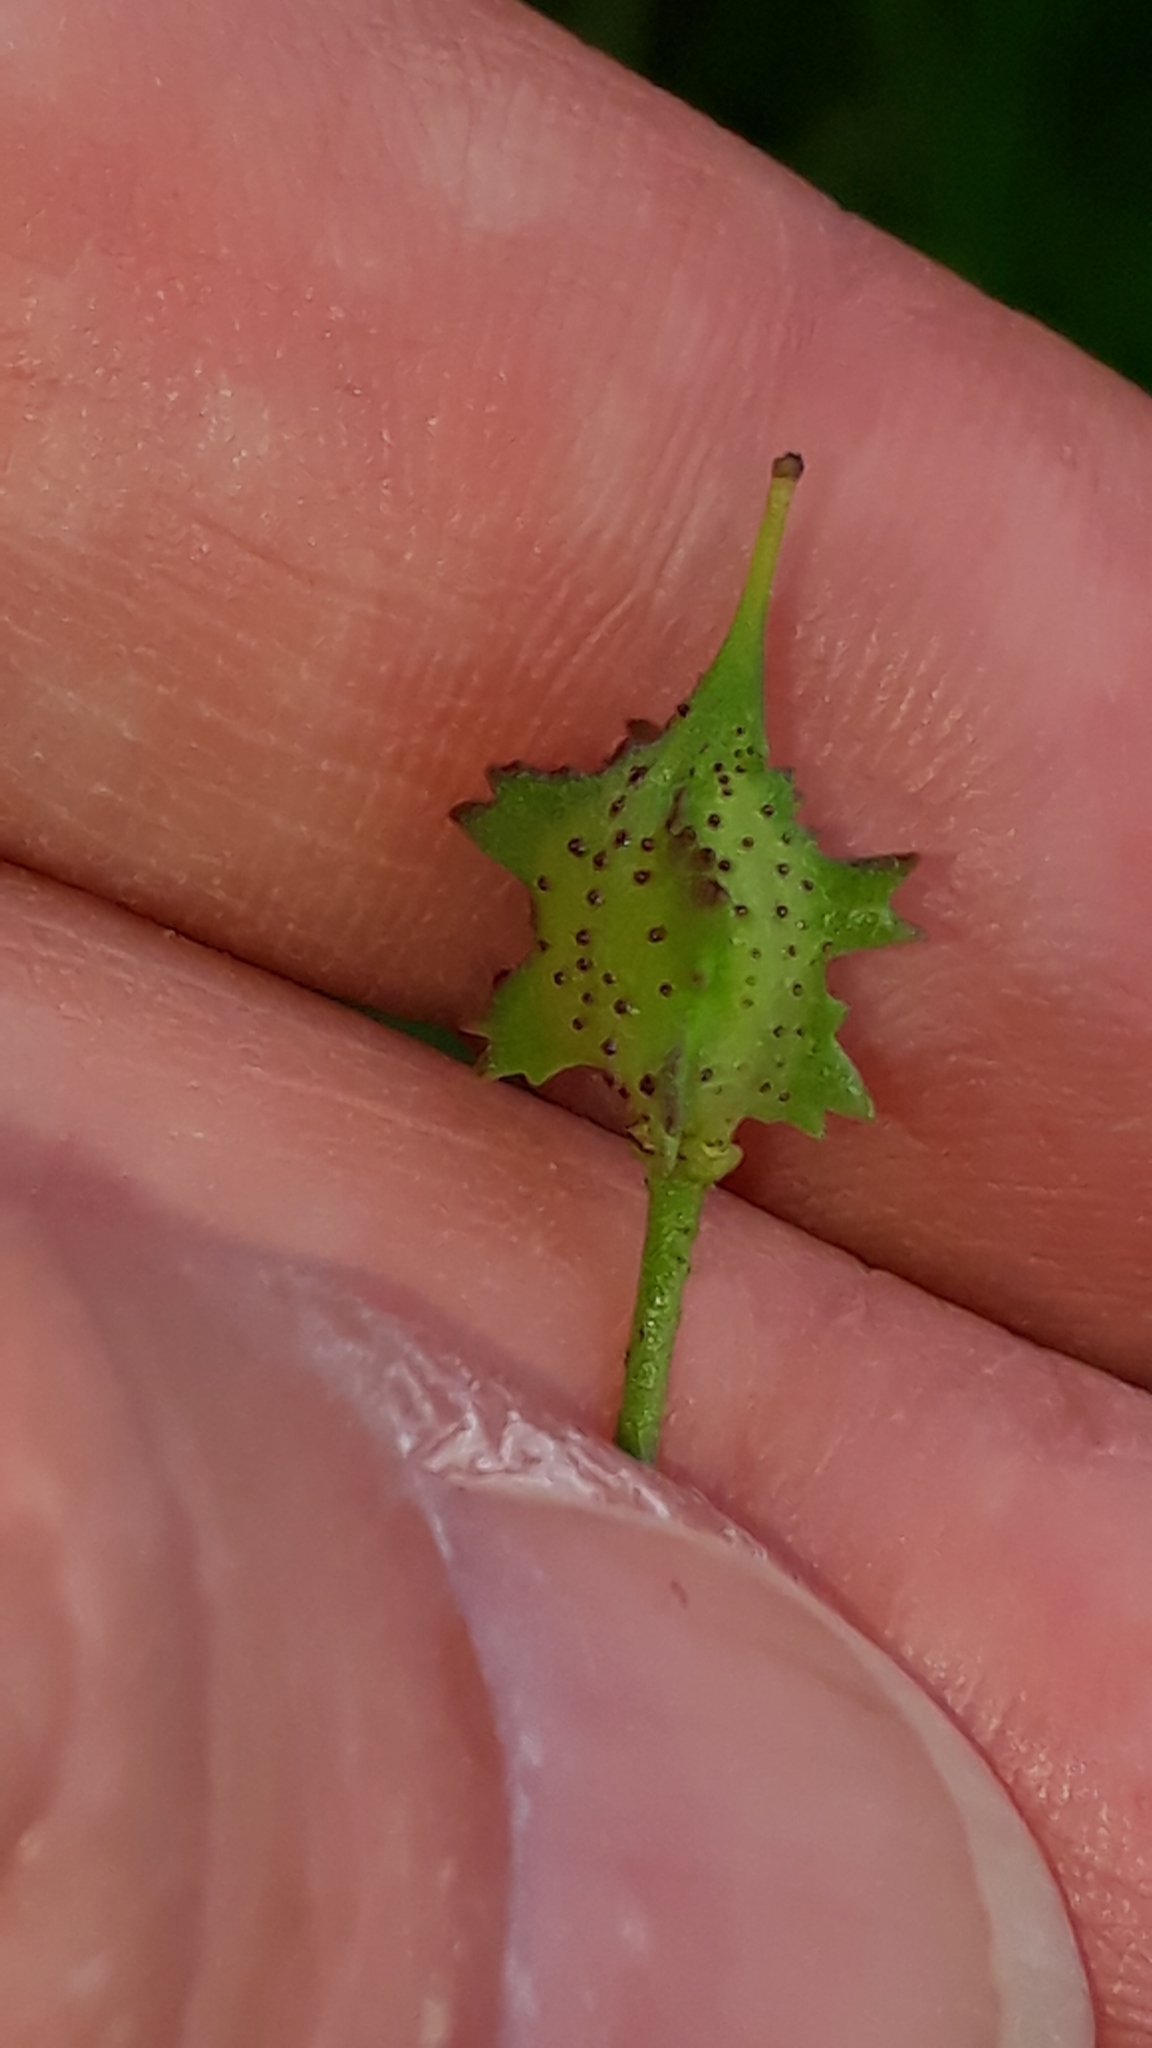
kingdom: Plantae
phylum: Tracheophyta
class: Magnoliopsida
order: Brassicales
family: Brassicaceae
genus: Bunias
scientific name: Bunias erucago
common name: Southern warty-cabbage
